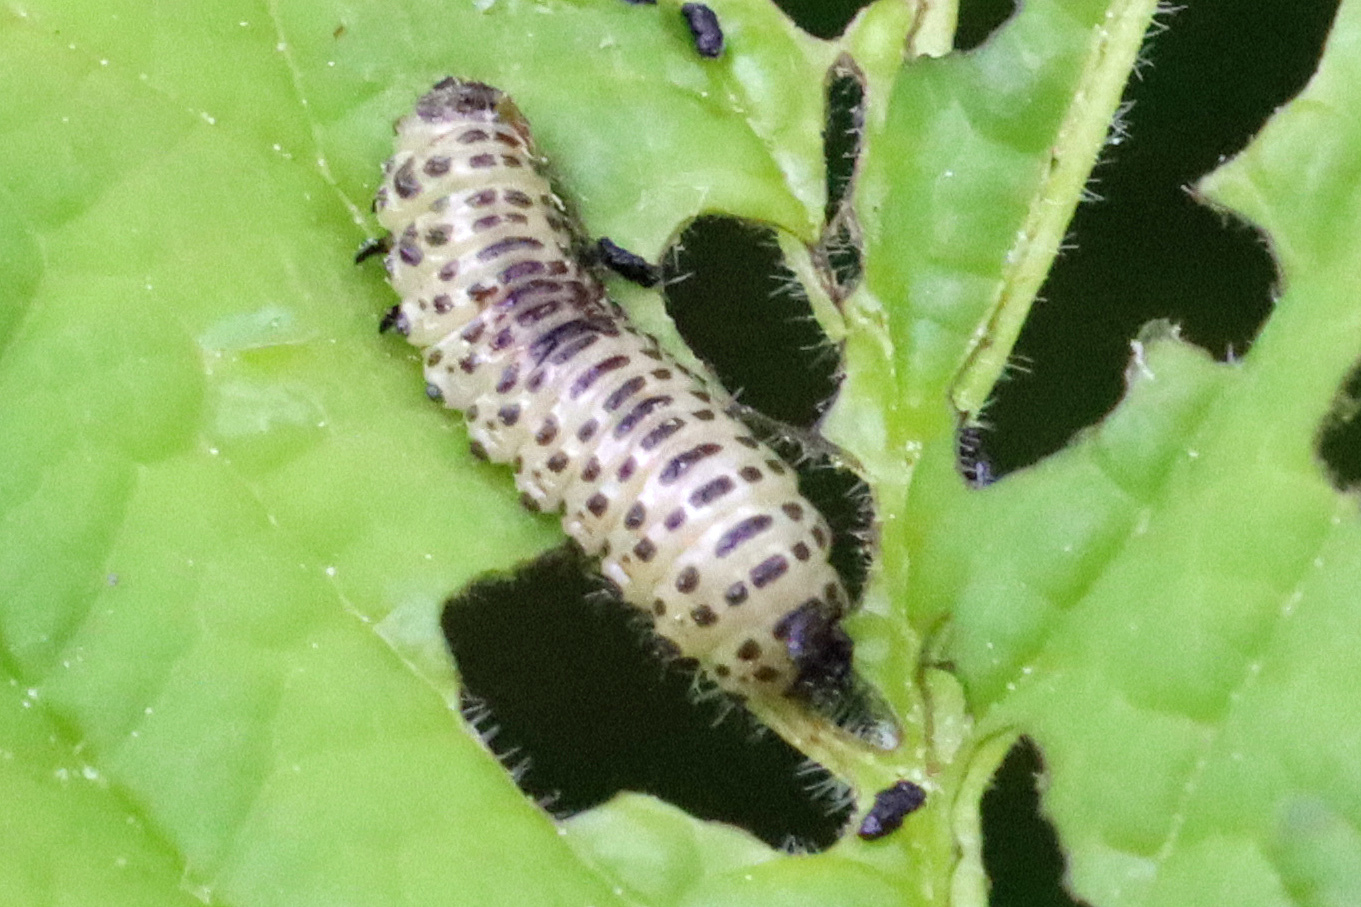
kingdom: Animalia
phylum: Arthropoda
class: Insecta
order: Coleoptera
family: Chrysomelidae
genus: Pyrrhalta
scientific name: Pyrrhalta viburni
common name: Guelder-rose leaf beetle
